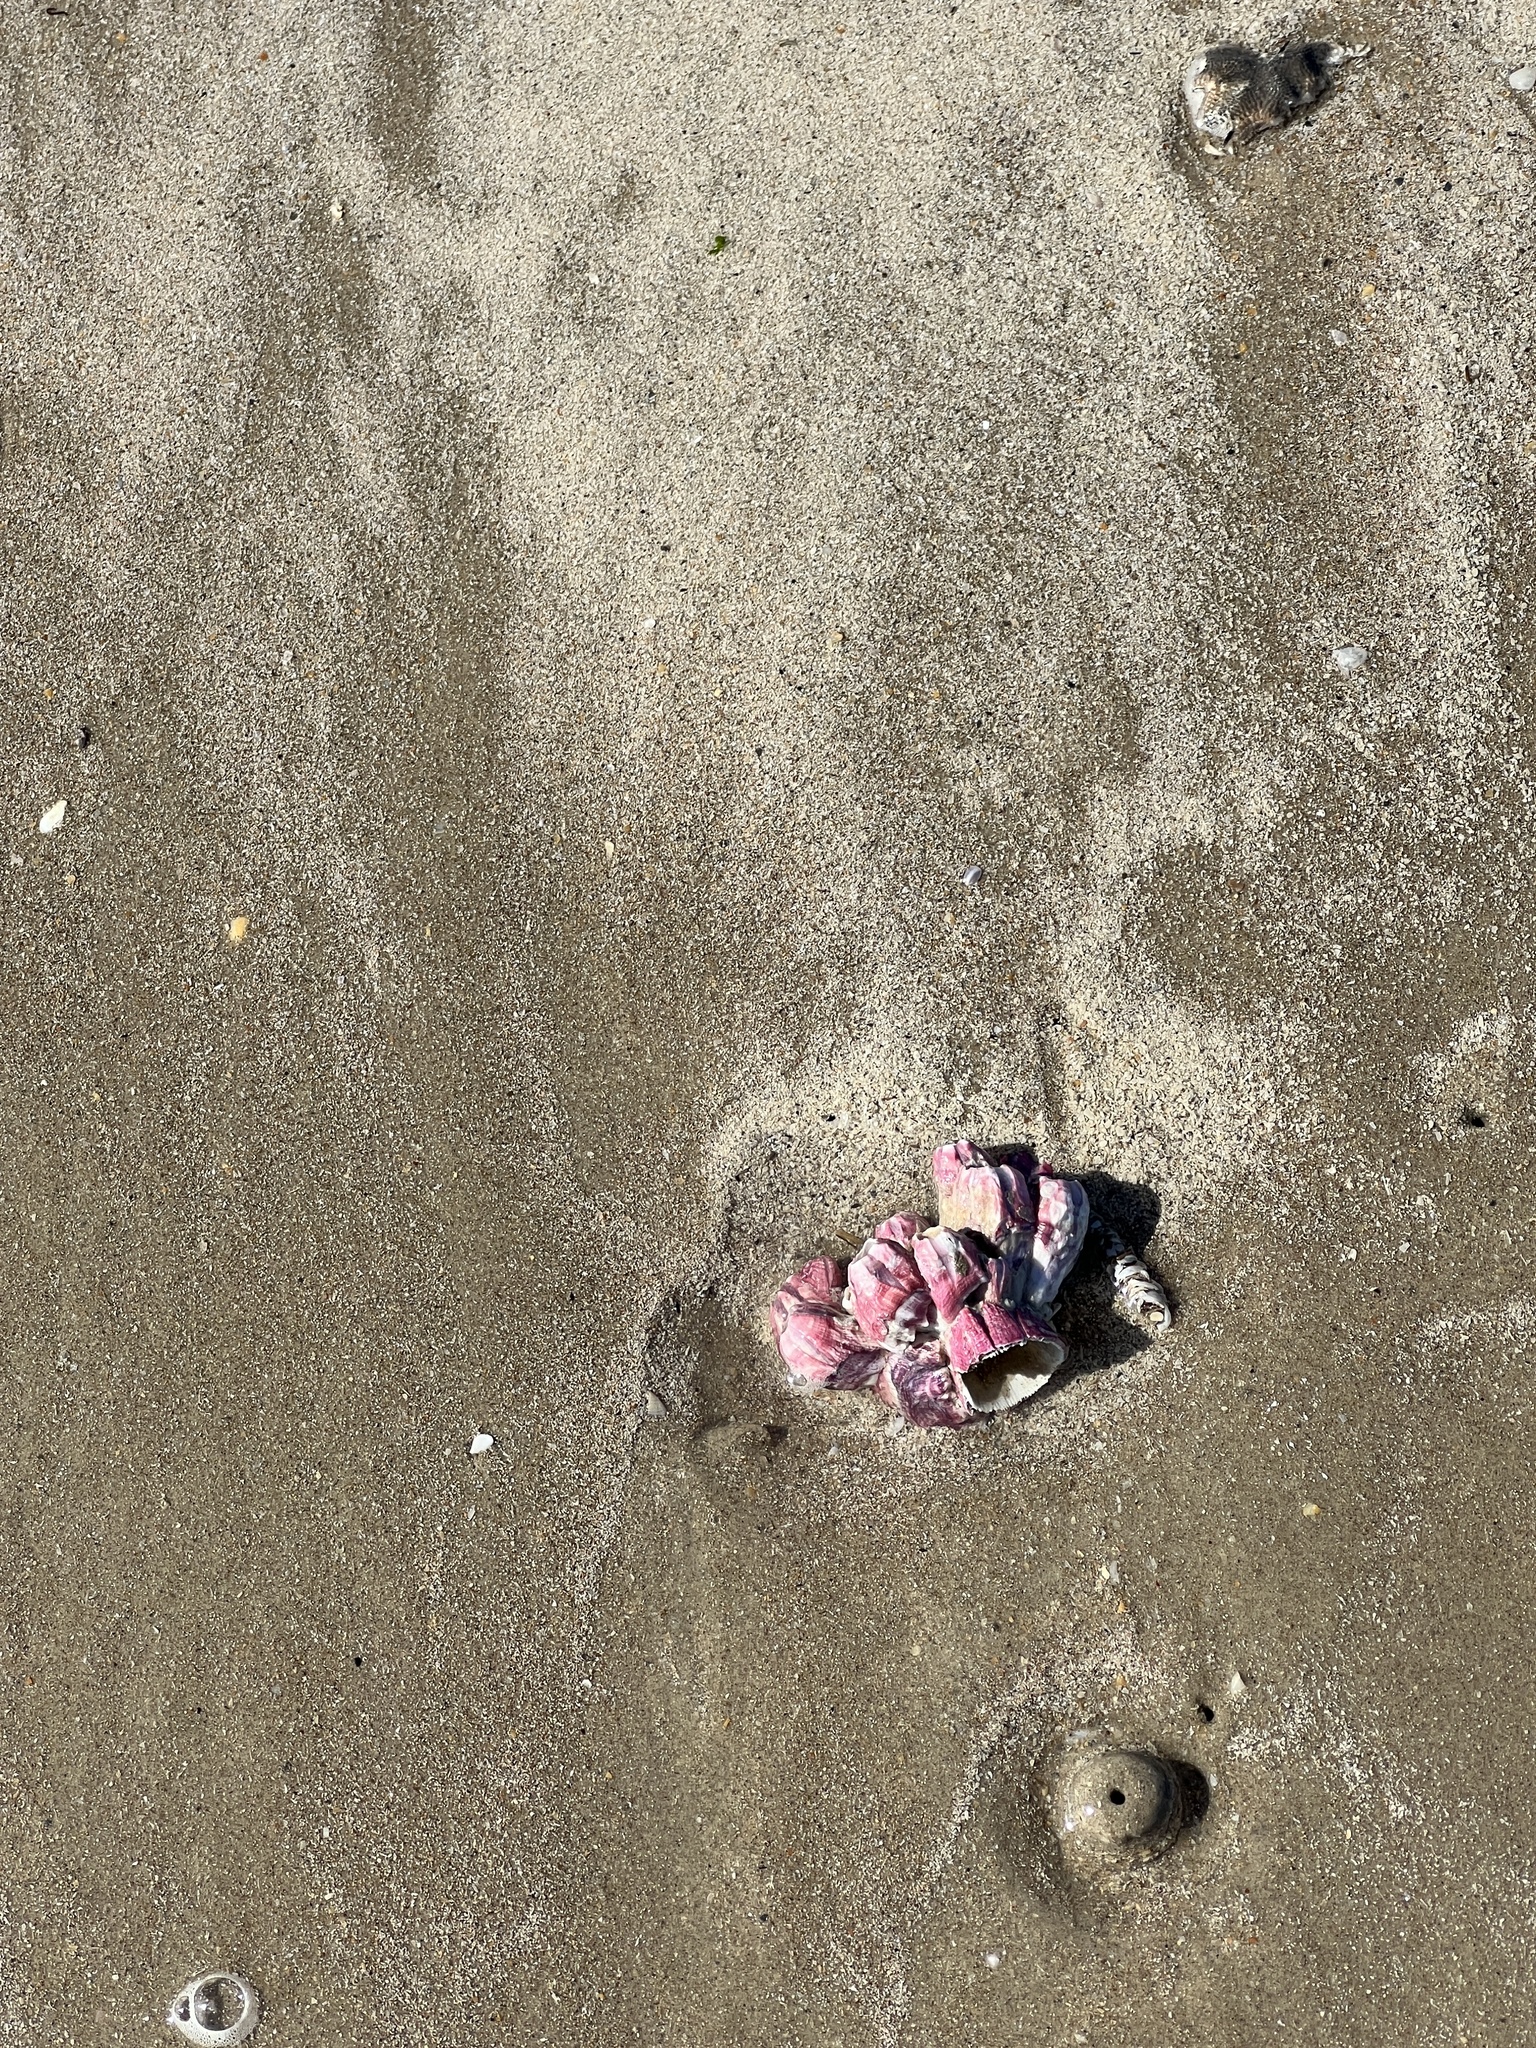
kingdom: Animalia
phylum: Arthropoda
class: Maxillopoda
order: Sessilia
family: Balanidae
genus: Megabalanus
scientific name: Megabalanus tintinnabulum
